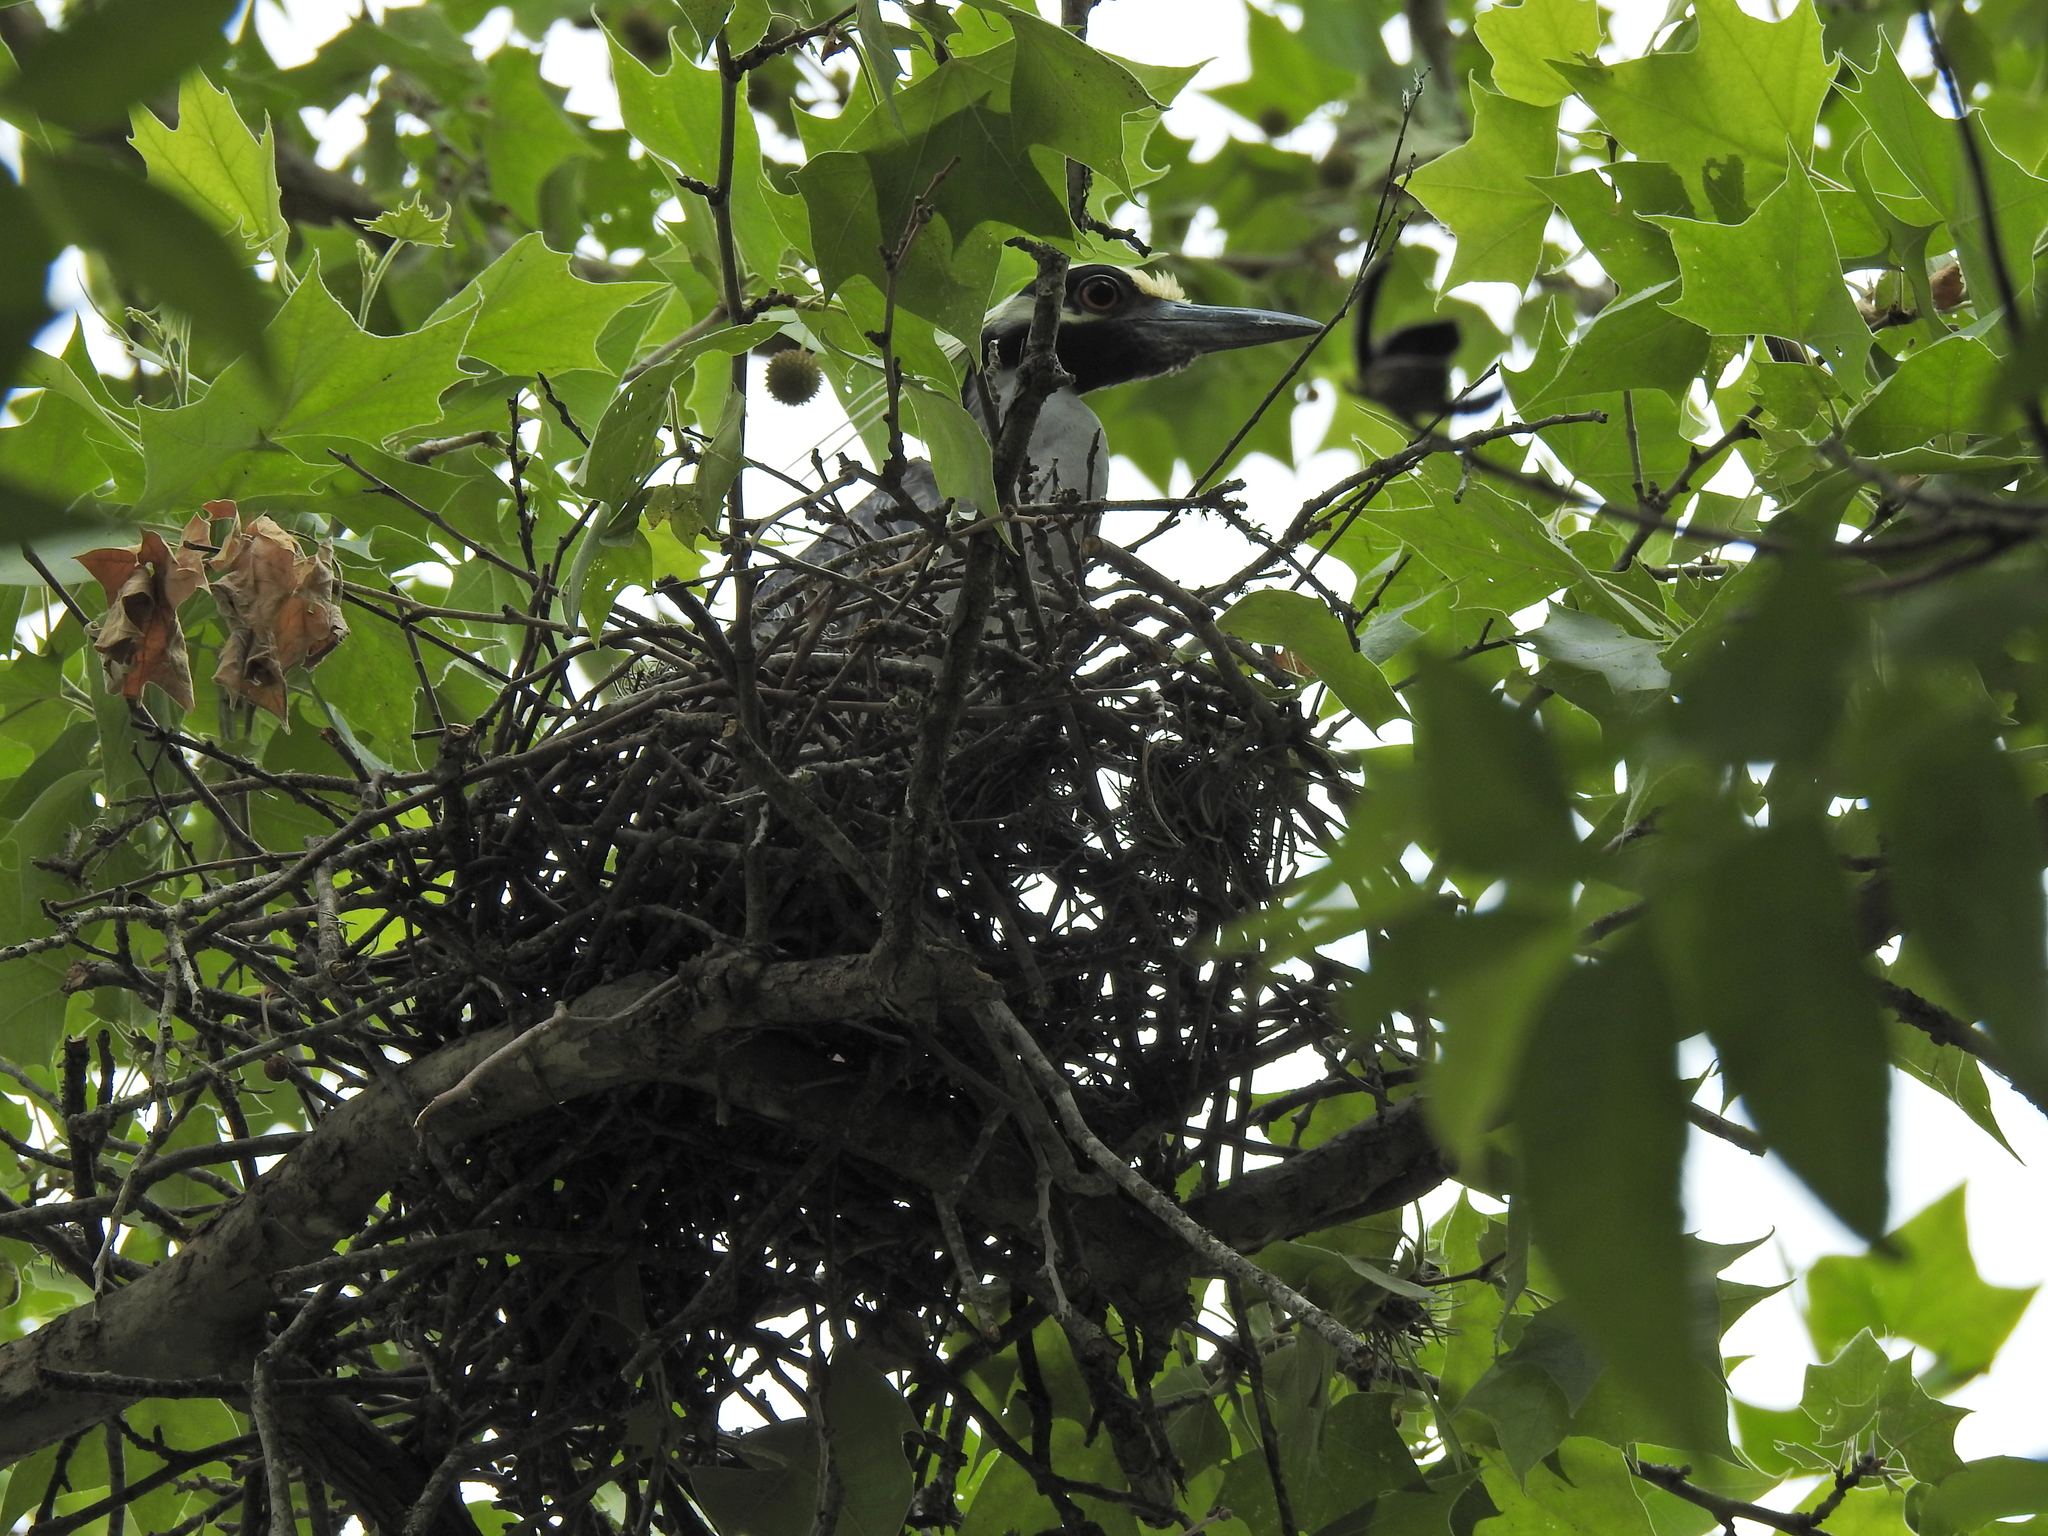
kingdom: Animalia
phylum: Chordata
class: Aves
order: Pelecaniformes
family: Ardeidae
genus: Nyctanassa
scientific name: Nyctanassa violacea
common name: Yellow-crowned night heron
